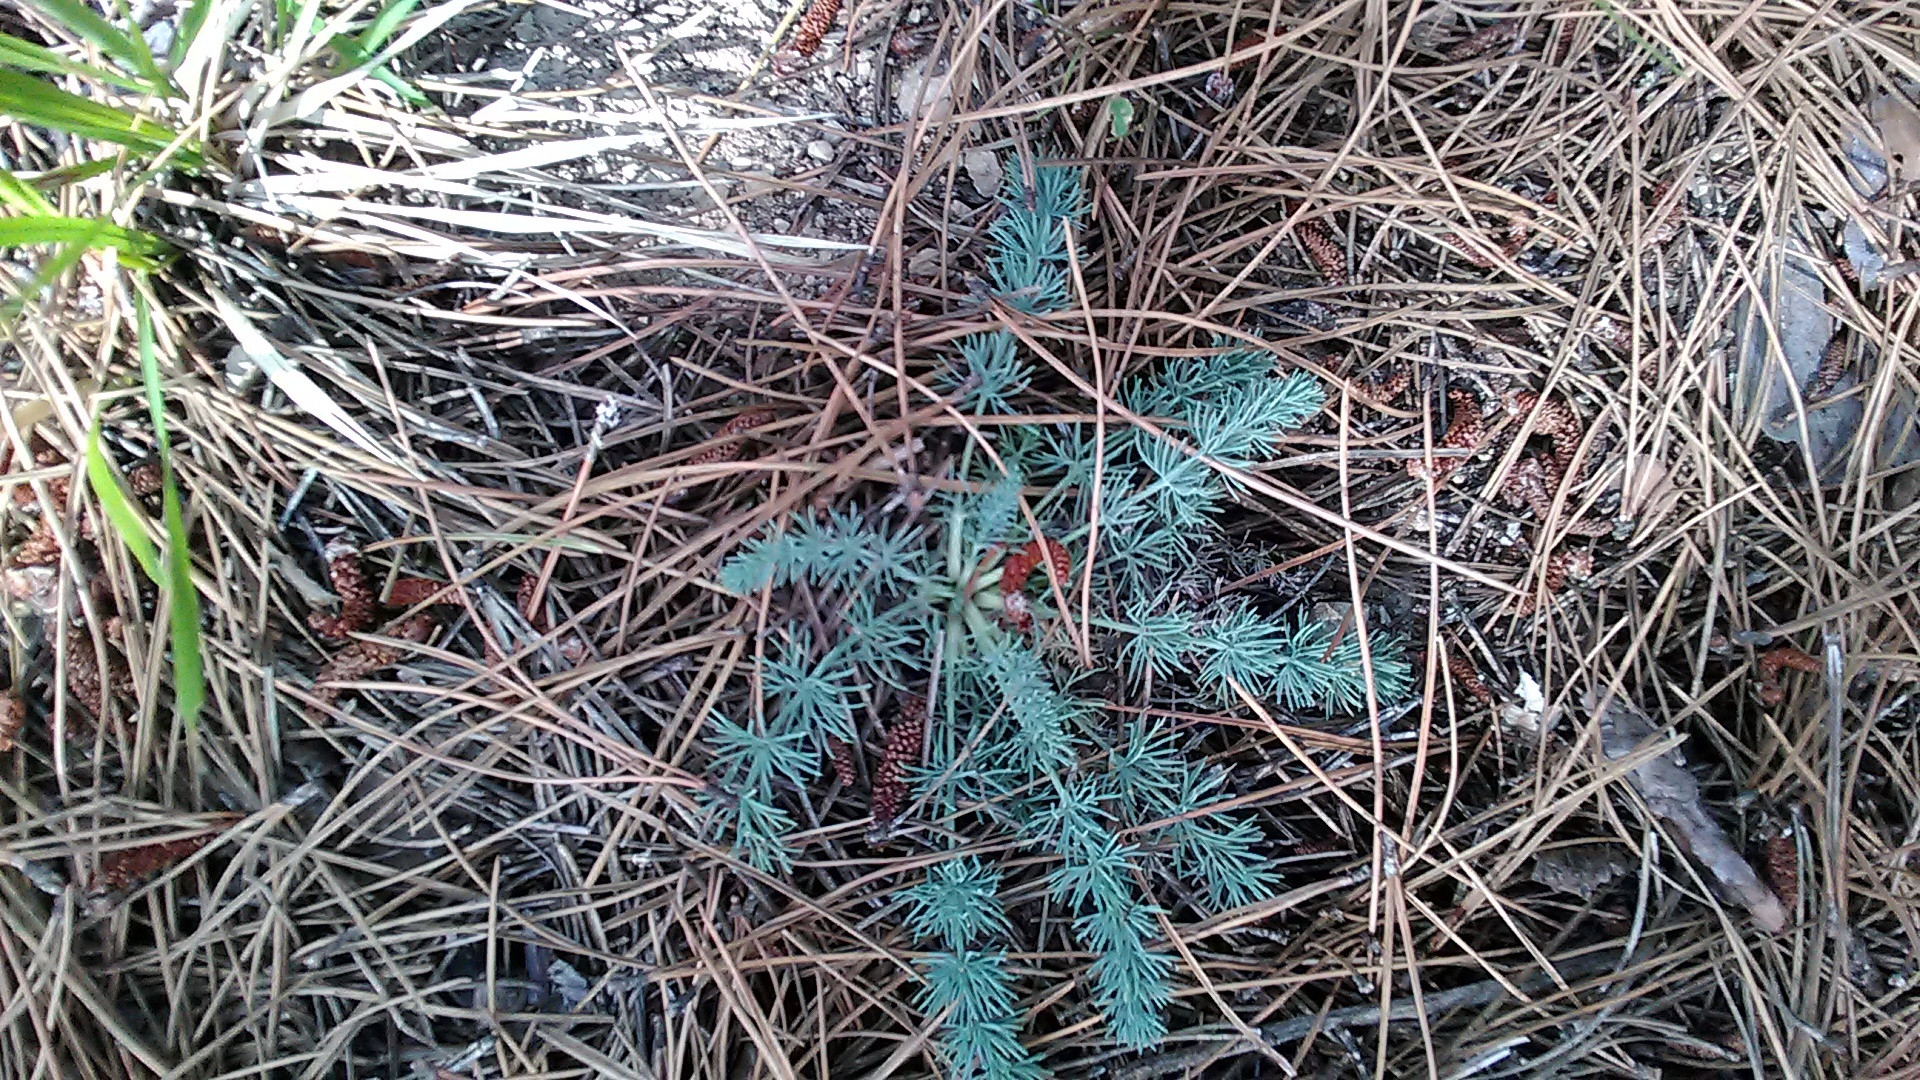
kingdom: Plantae
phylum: Tracheophyta
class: Magnoliopsida
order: Apiales
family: Apiaceae
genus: Seseli
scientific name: Seseli dichotomum
